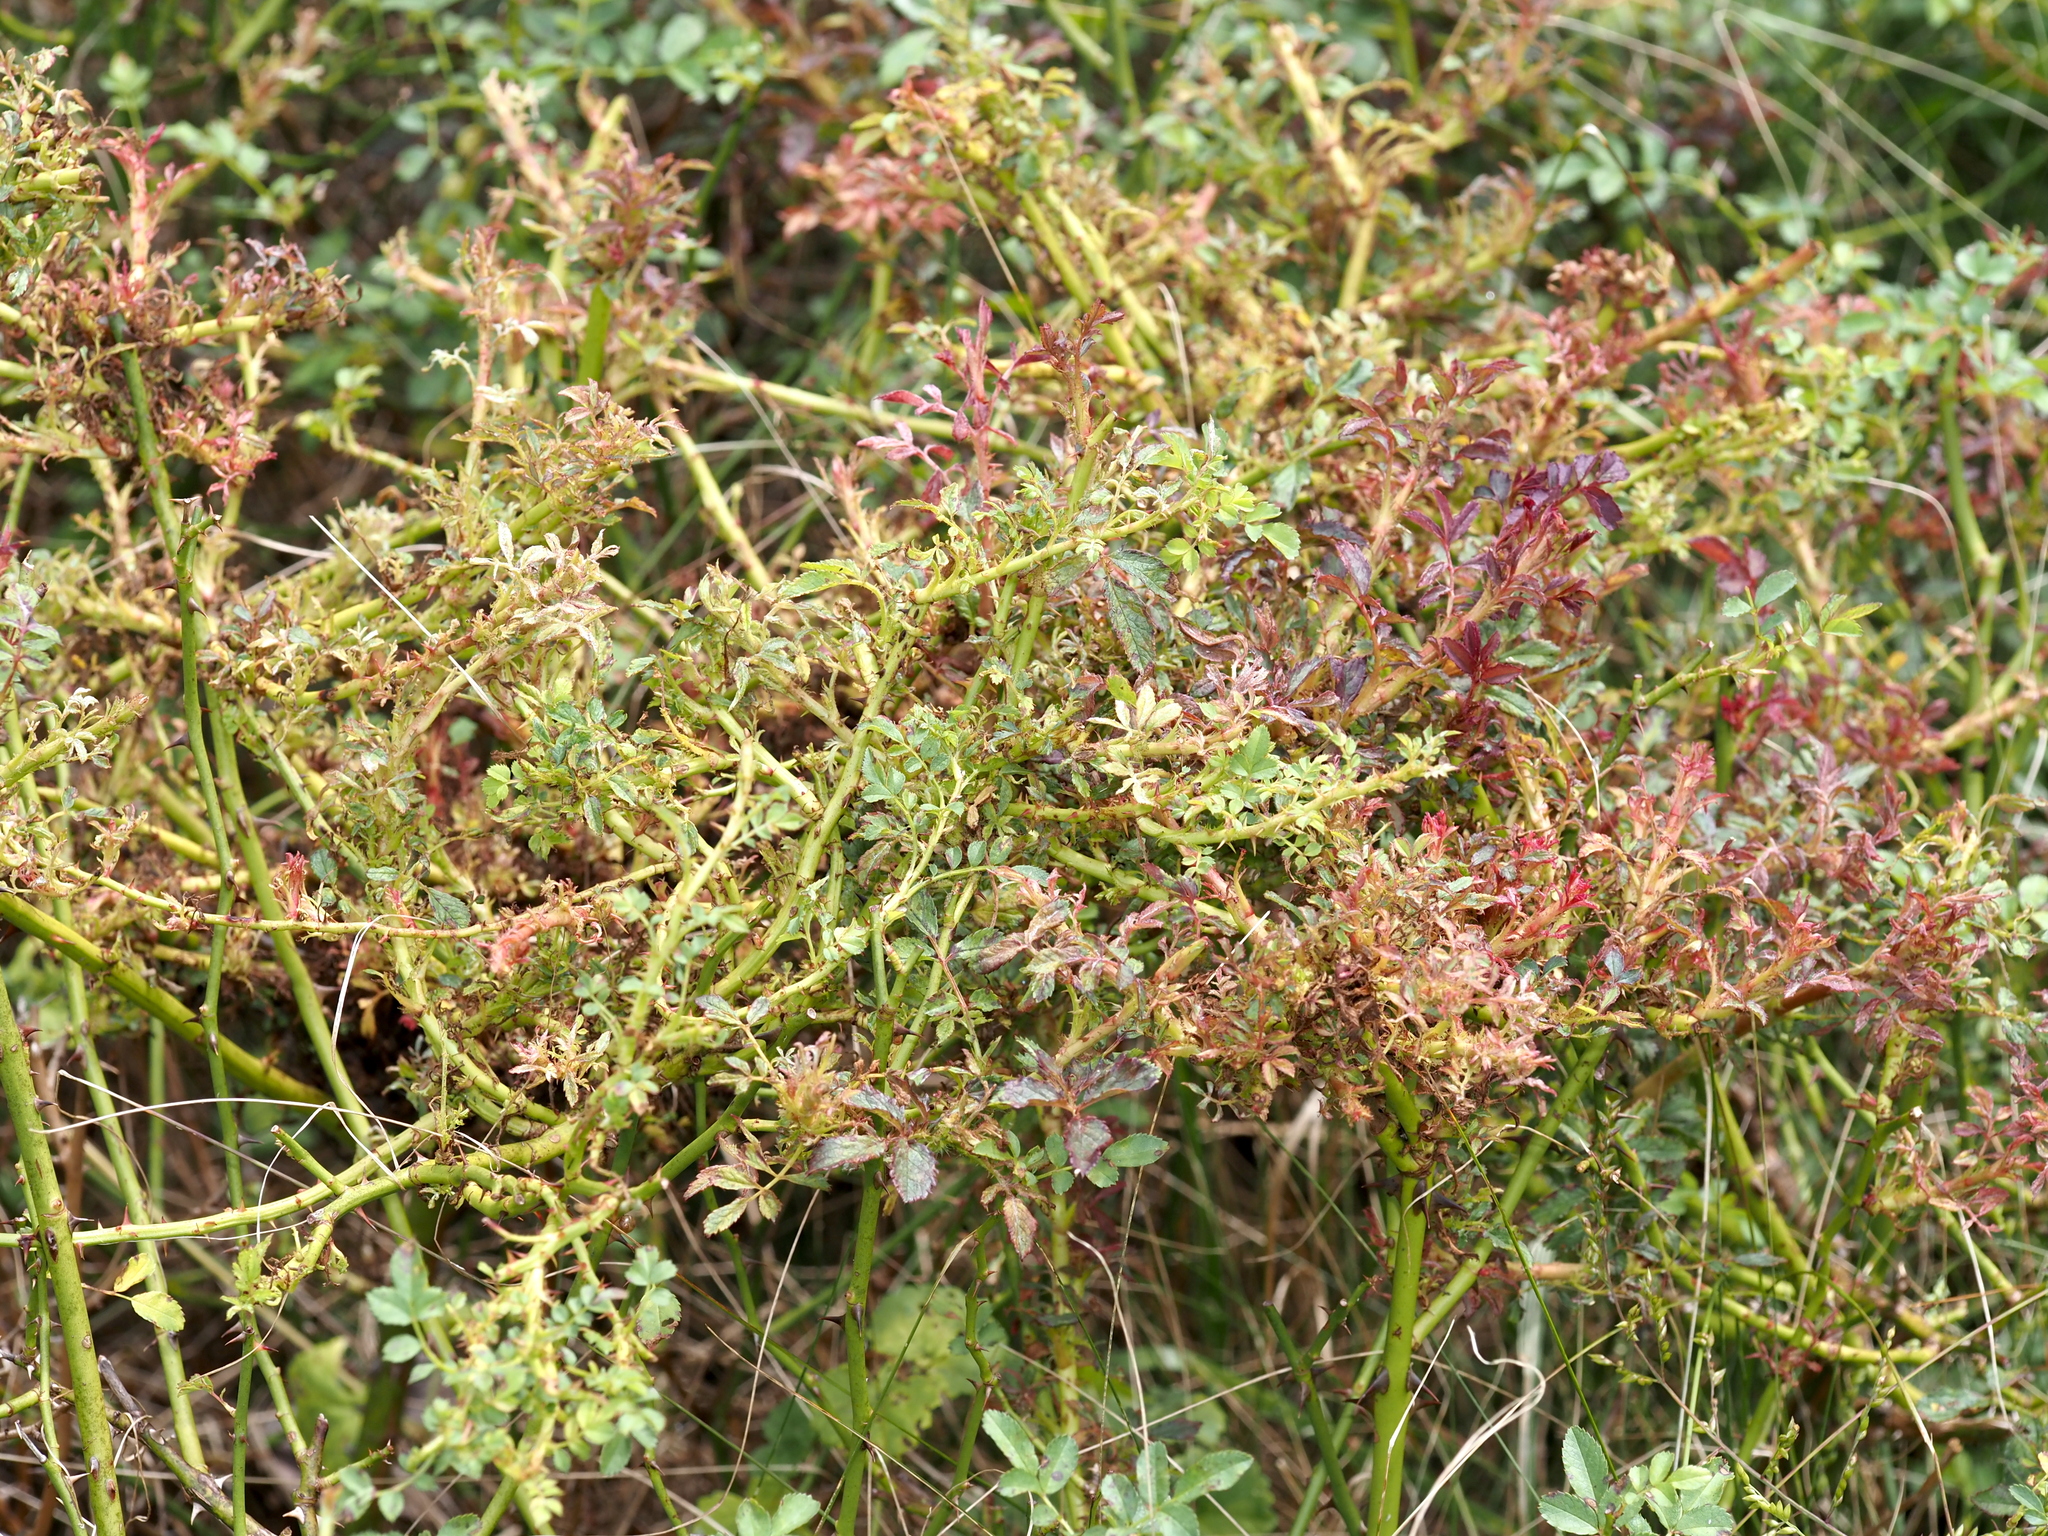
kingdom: Viruses
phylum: Negarnaviricota
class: Ellioviricetes
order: Bunyavirales
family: Fimoviridae
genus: Emaravirus
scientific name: Emaravirus rosae
